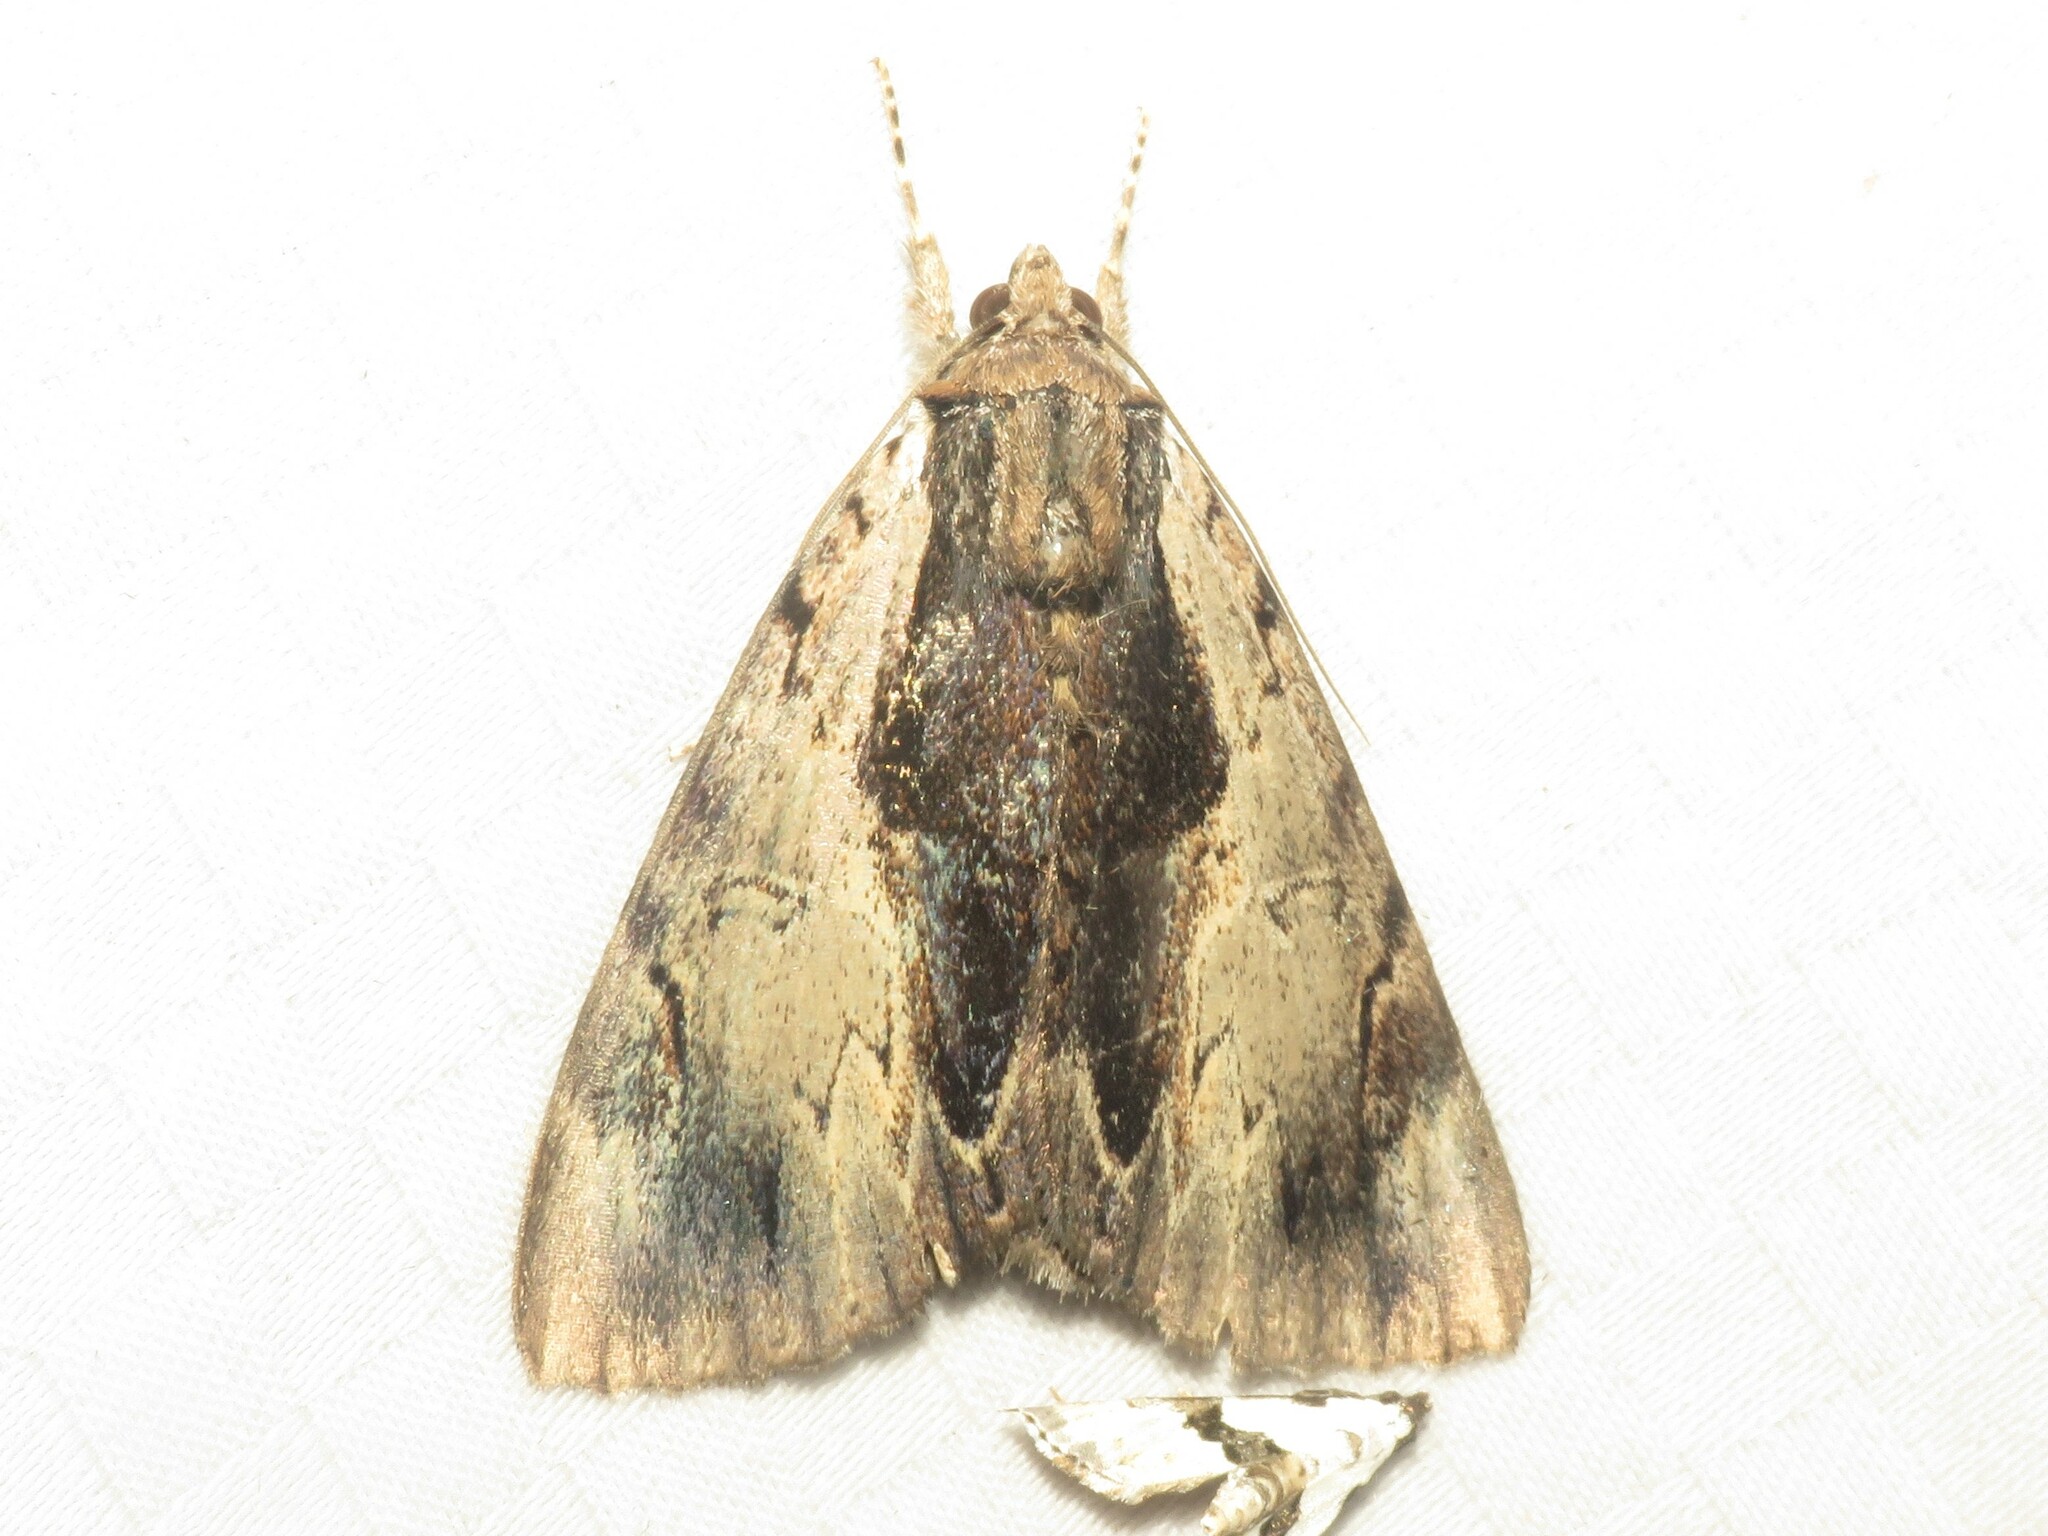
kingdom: Animalia
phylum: Arthropoda
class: Insecta
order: Lepidoptera
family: Erebidae
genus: Catocala
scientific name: Catocala ultronia
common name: Ultronia underwing
